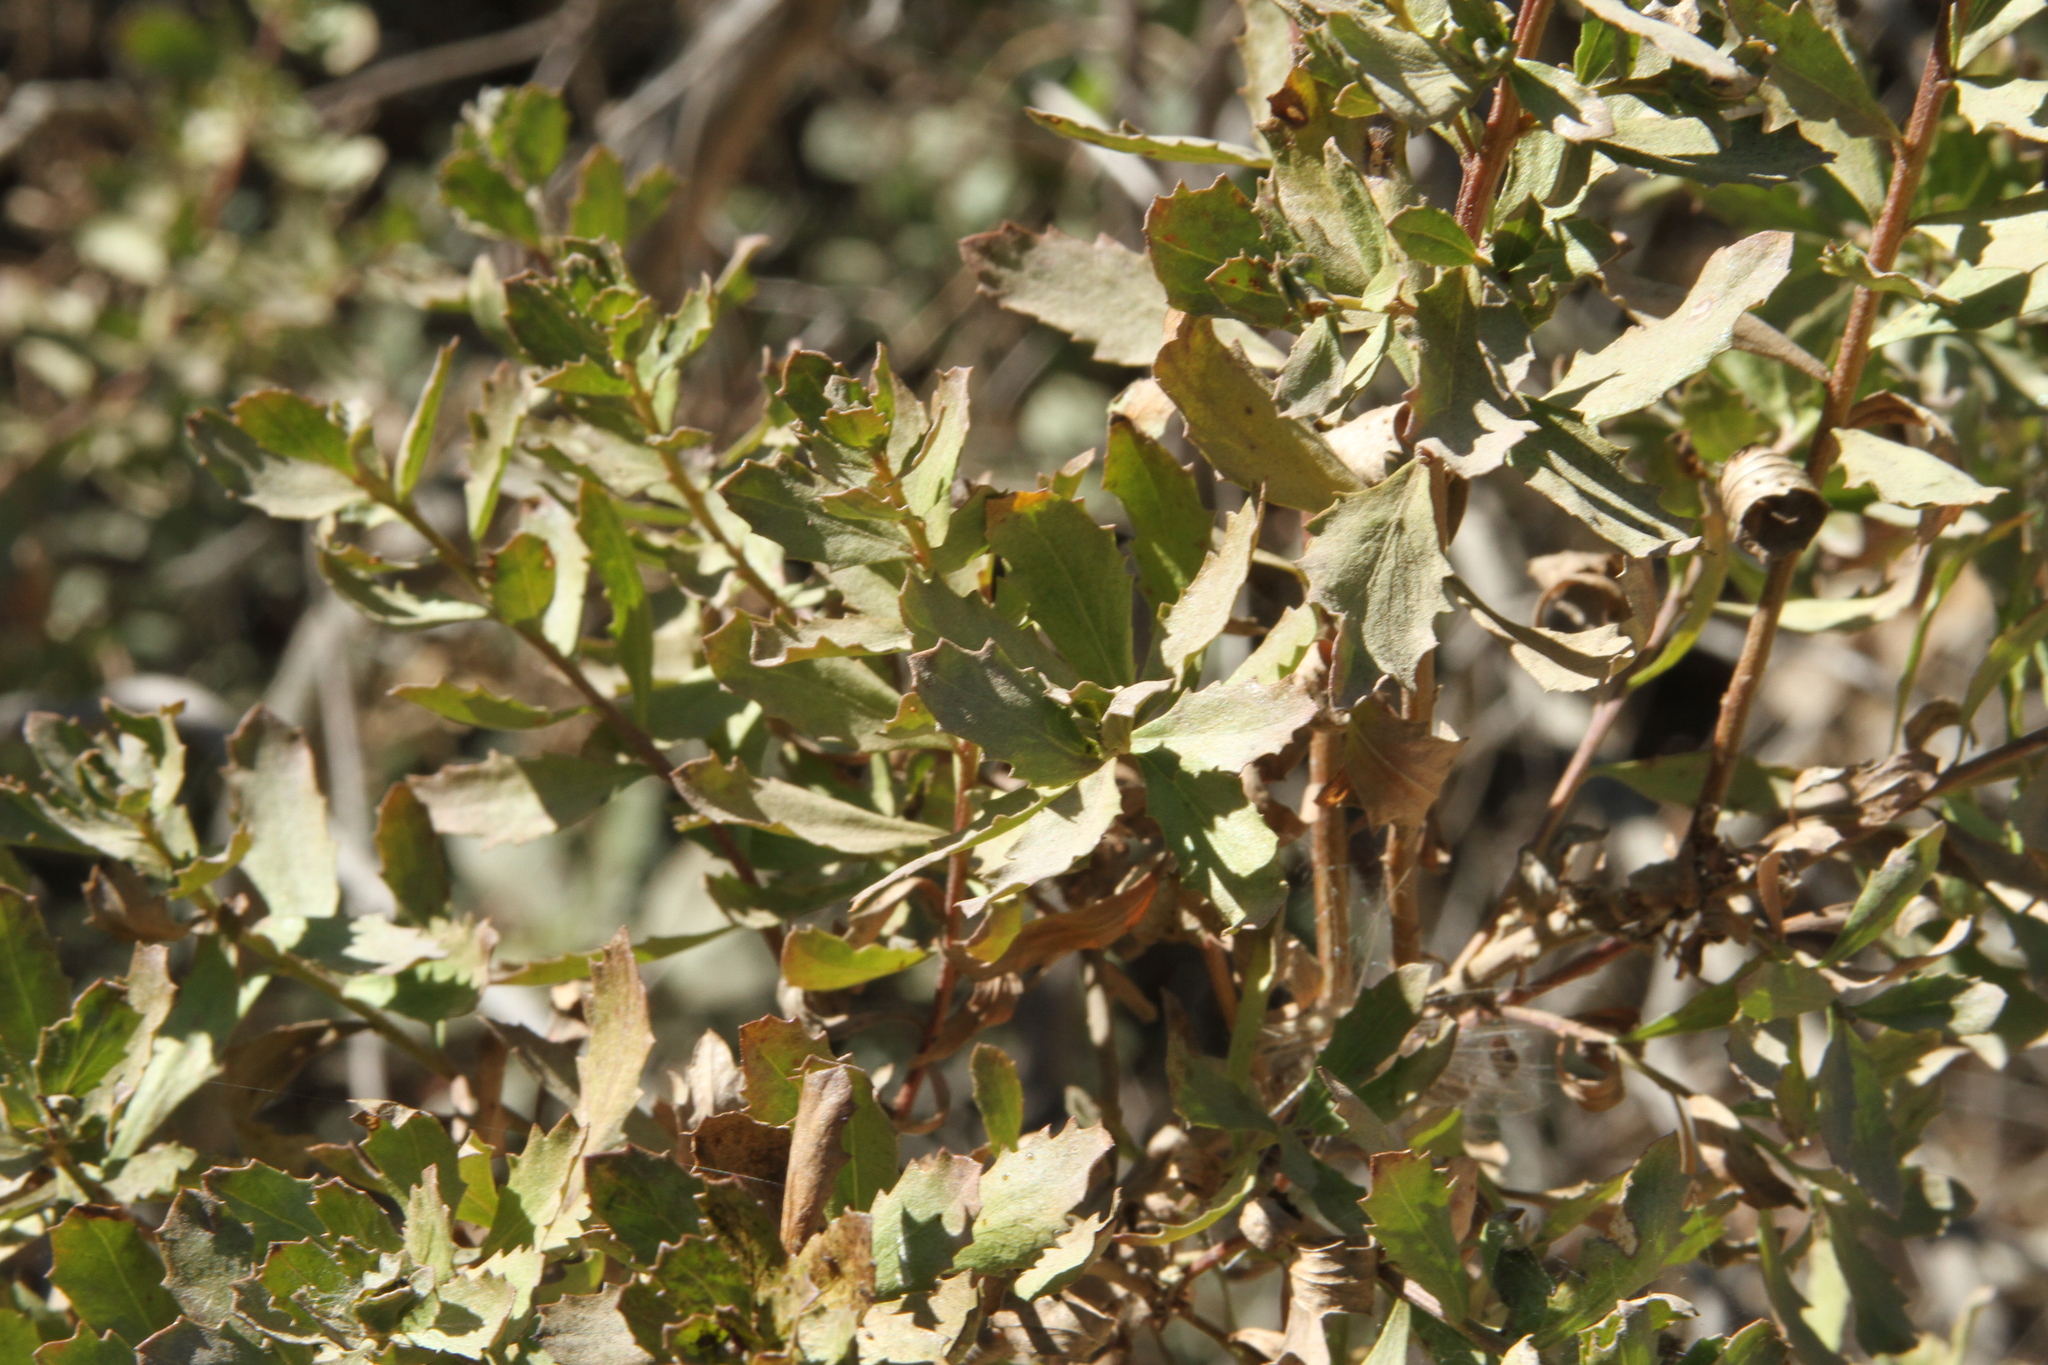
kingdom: Plantae
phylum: Tracheophyta
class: Magnoliopsida
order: Asterales
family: Asteraceae
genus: Baccharis
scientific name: Baccharis pilularis
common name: Coyotebrush
